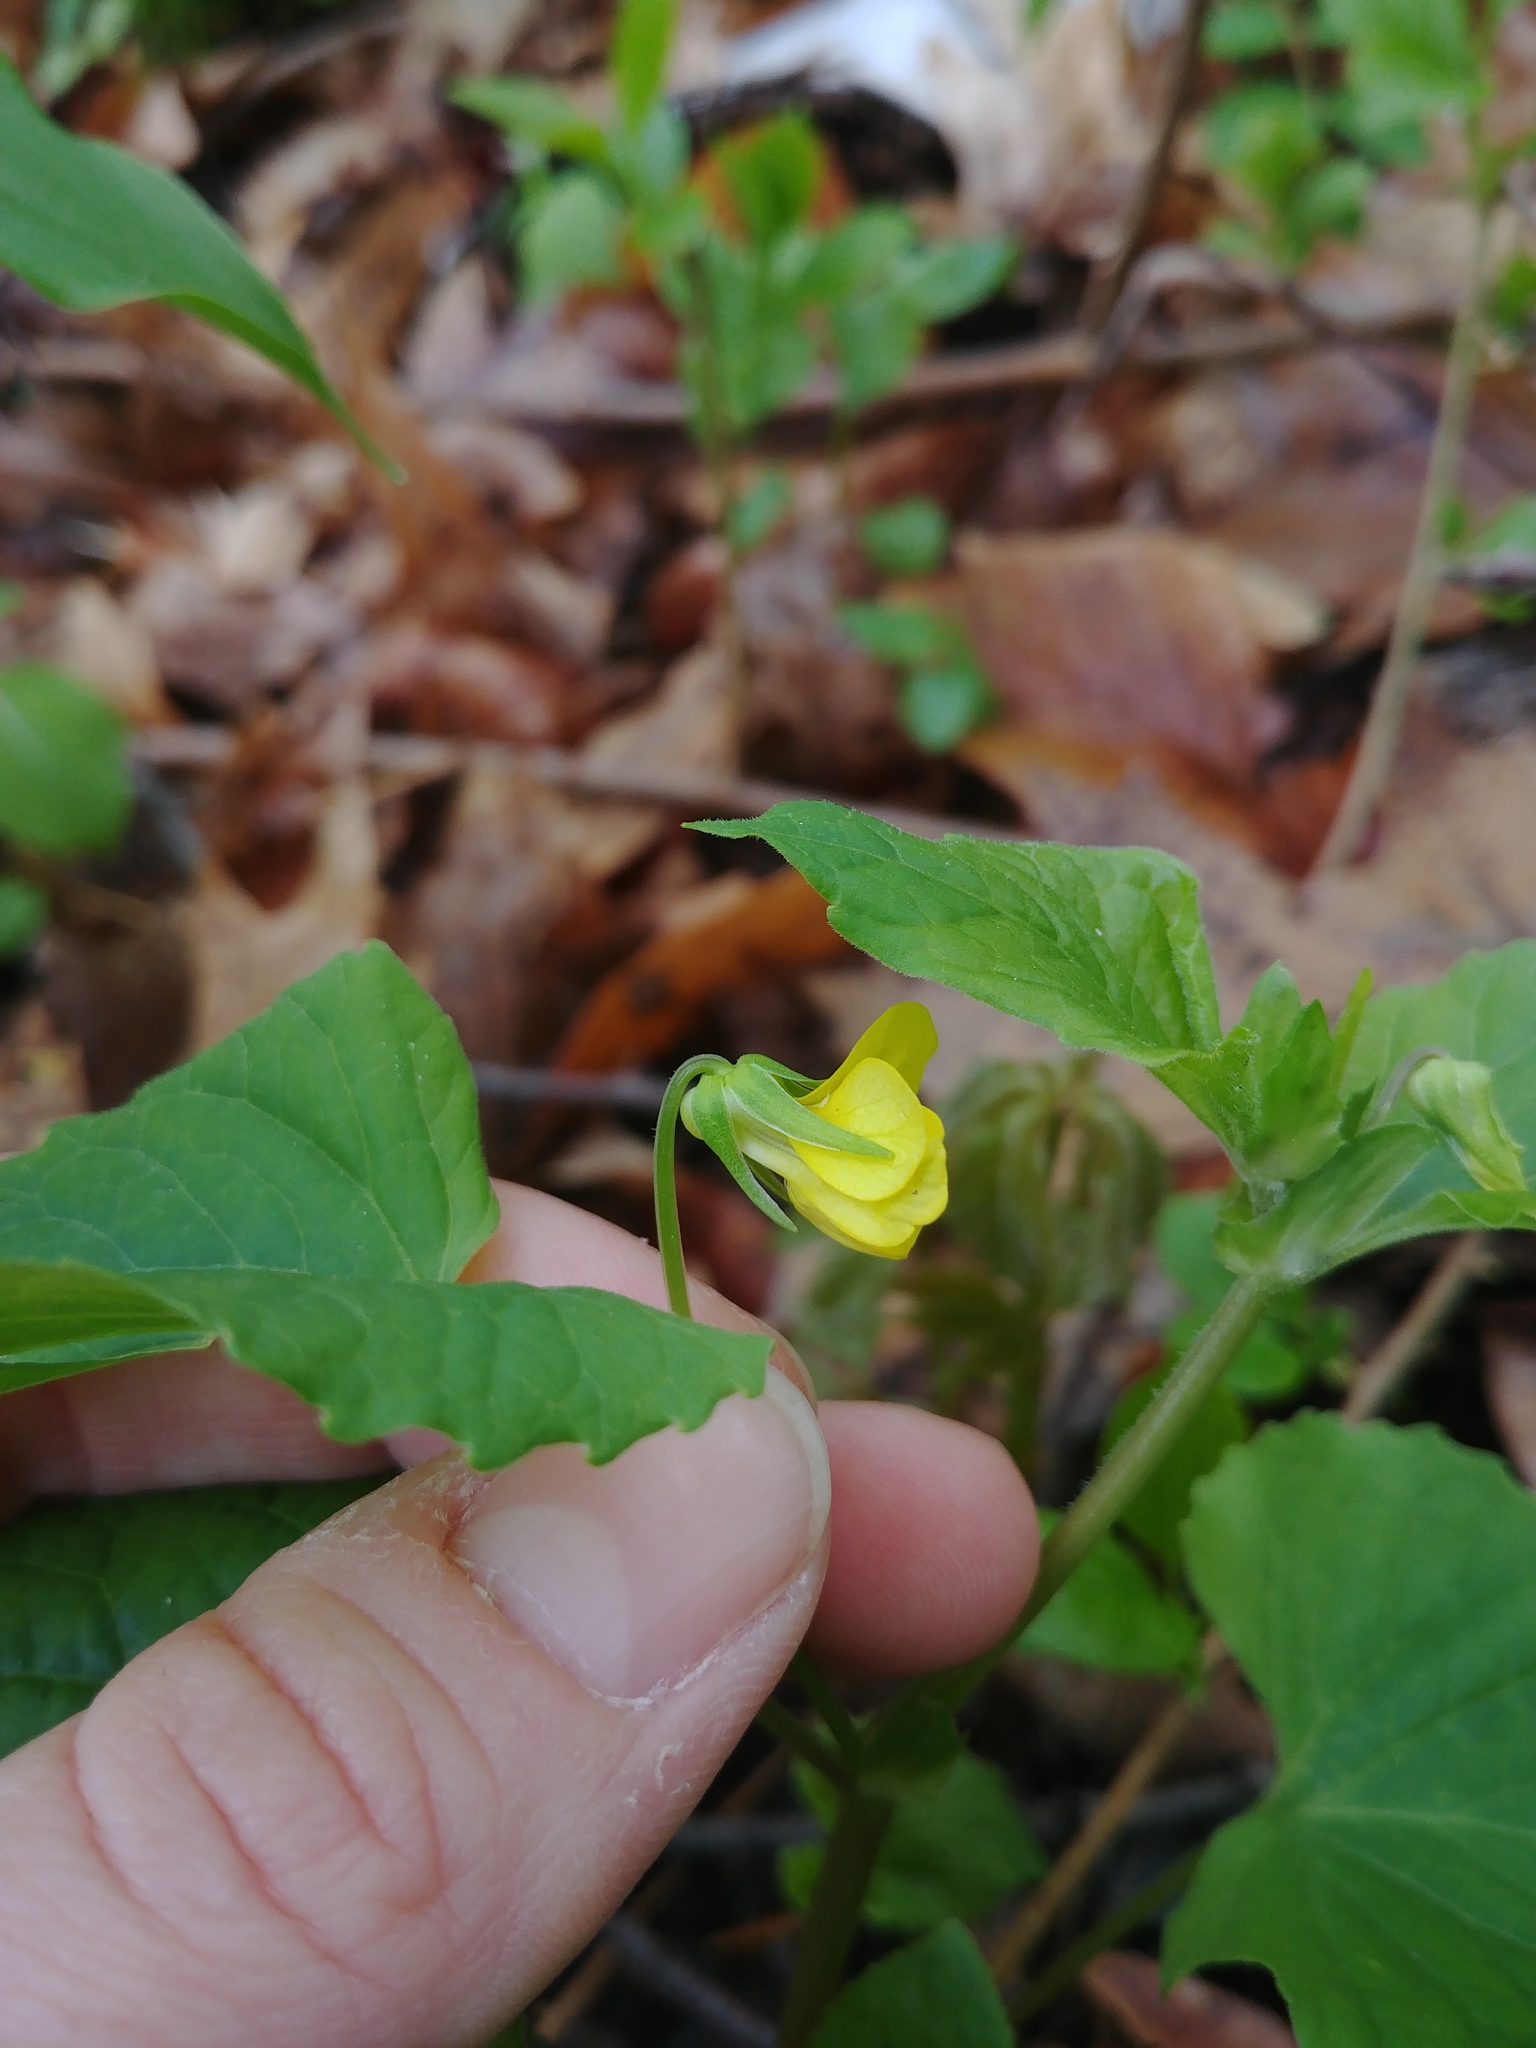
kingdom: Plantae
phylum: Tracheophyta
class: Magnoliopsida
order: Malpighiales
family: Violaceae
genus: Viola
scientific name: Viola eriocarpa
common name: Smooth yellow violet
